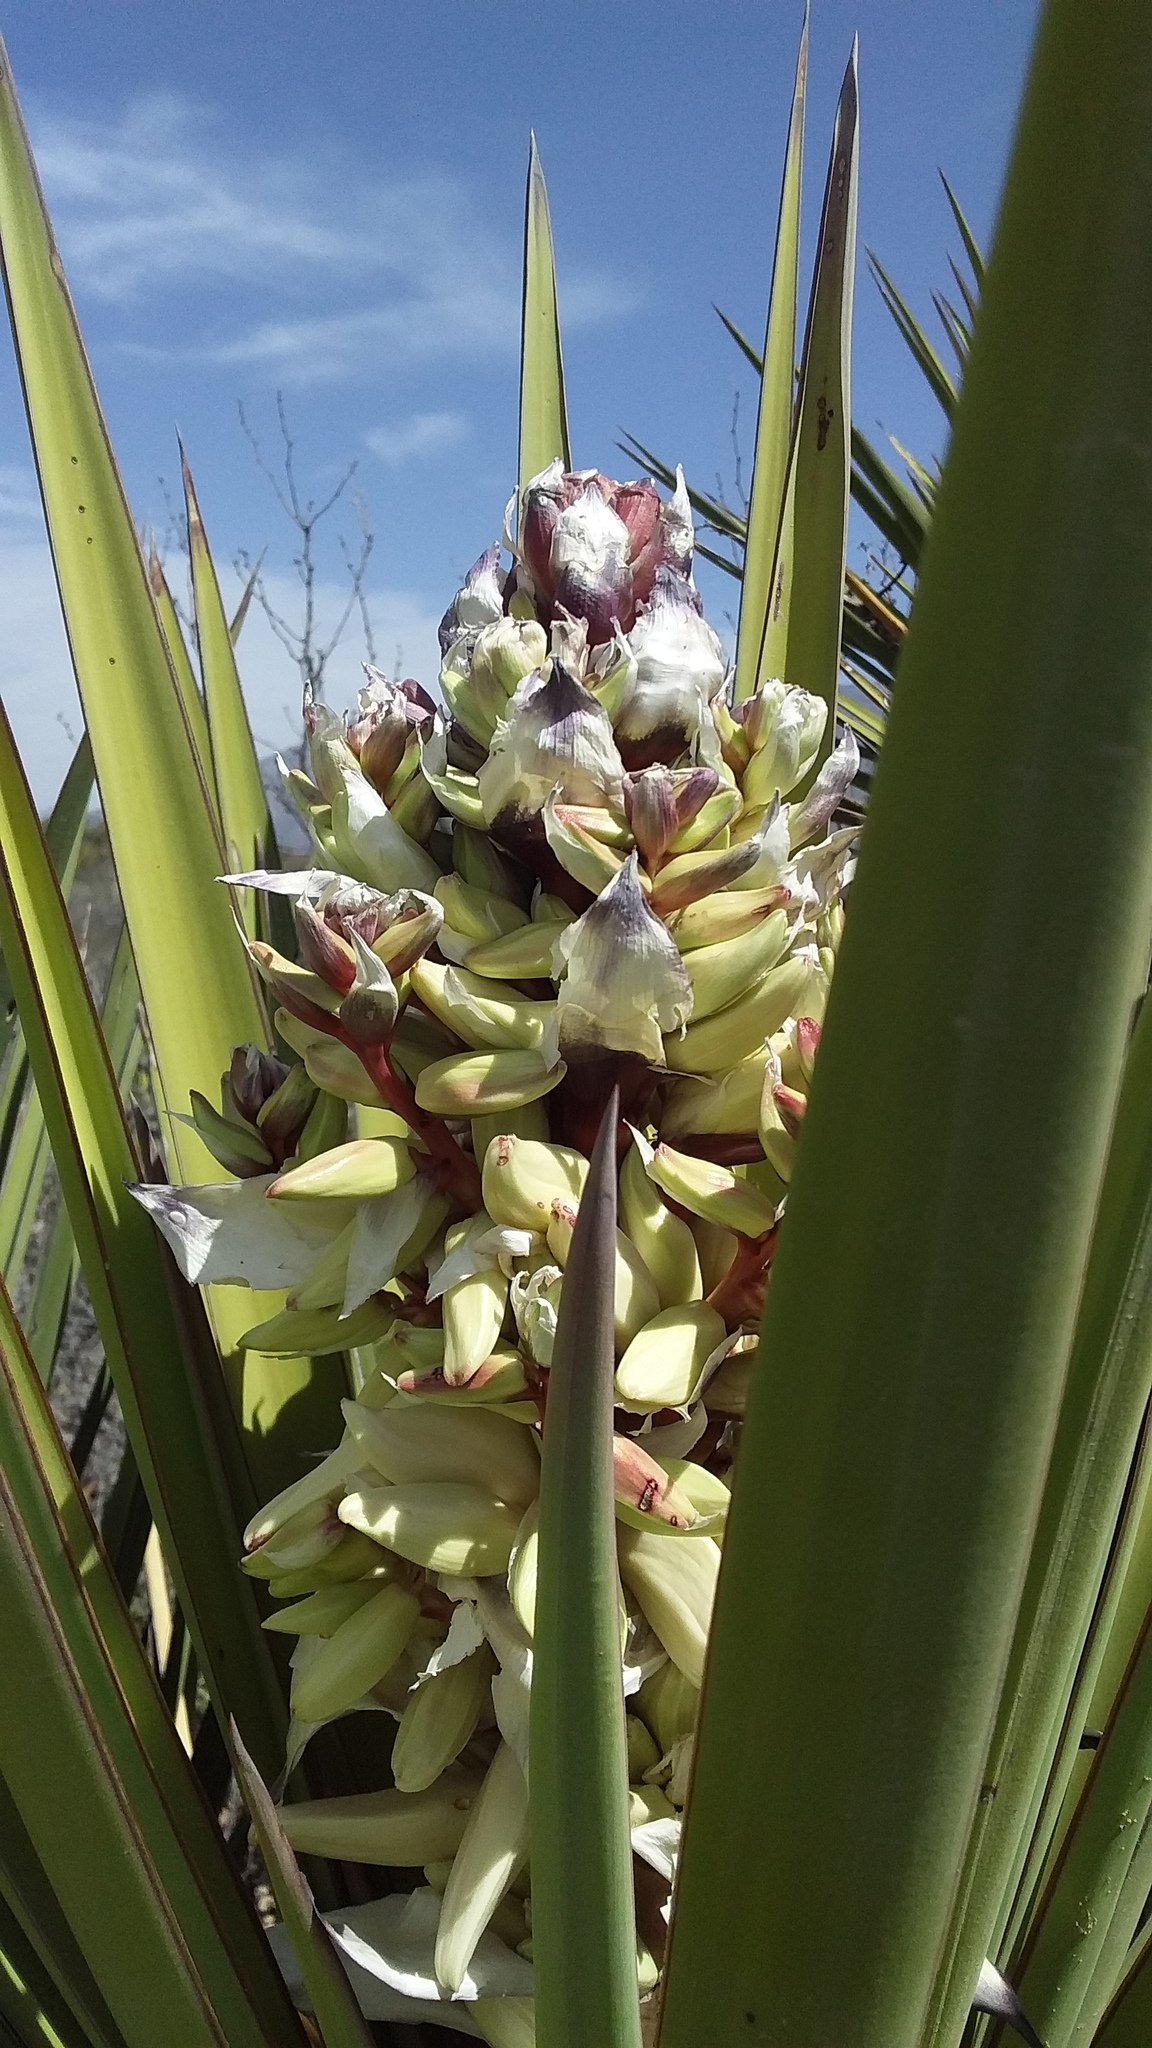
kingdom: Plantae
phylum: Tracheophyta
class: Liliopsida
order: Asparagales
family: Asparagaceae
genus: Yucca
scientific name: Yucca treculiana
